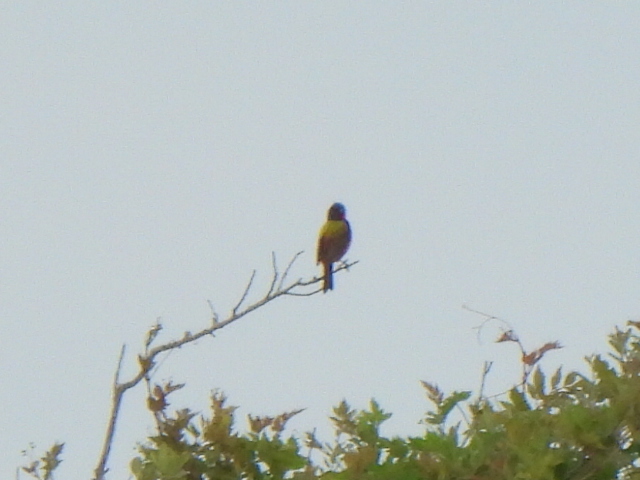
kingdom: Animalia
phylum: Chordata
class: Aves
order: Passeriformes
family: Cardinalidae
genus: Passerina
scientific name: Passerina ciris
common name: Painted bunting
